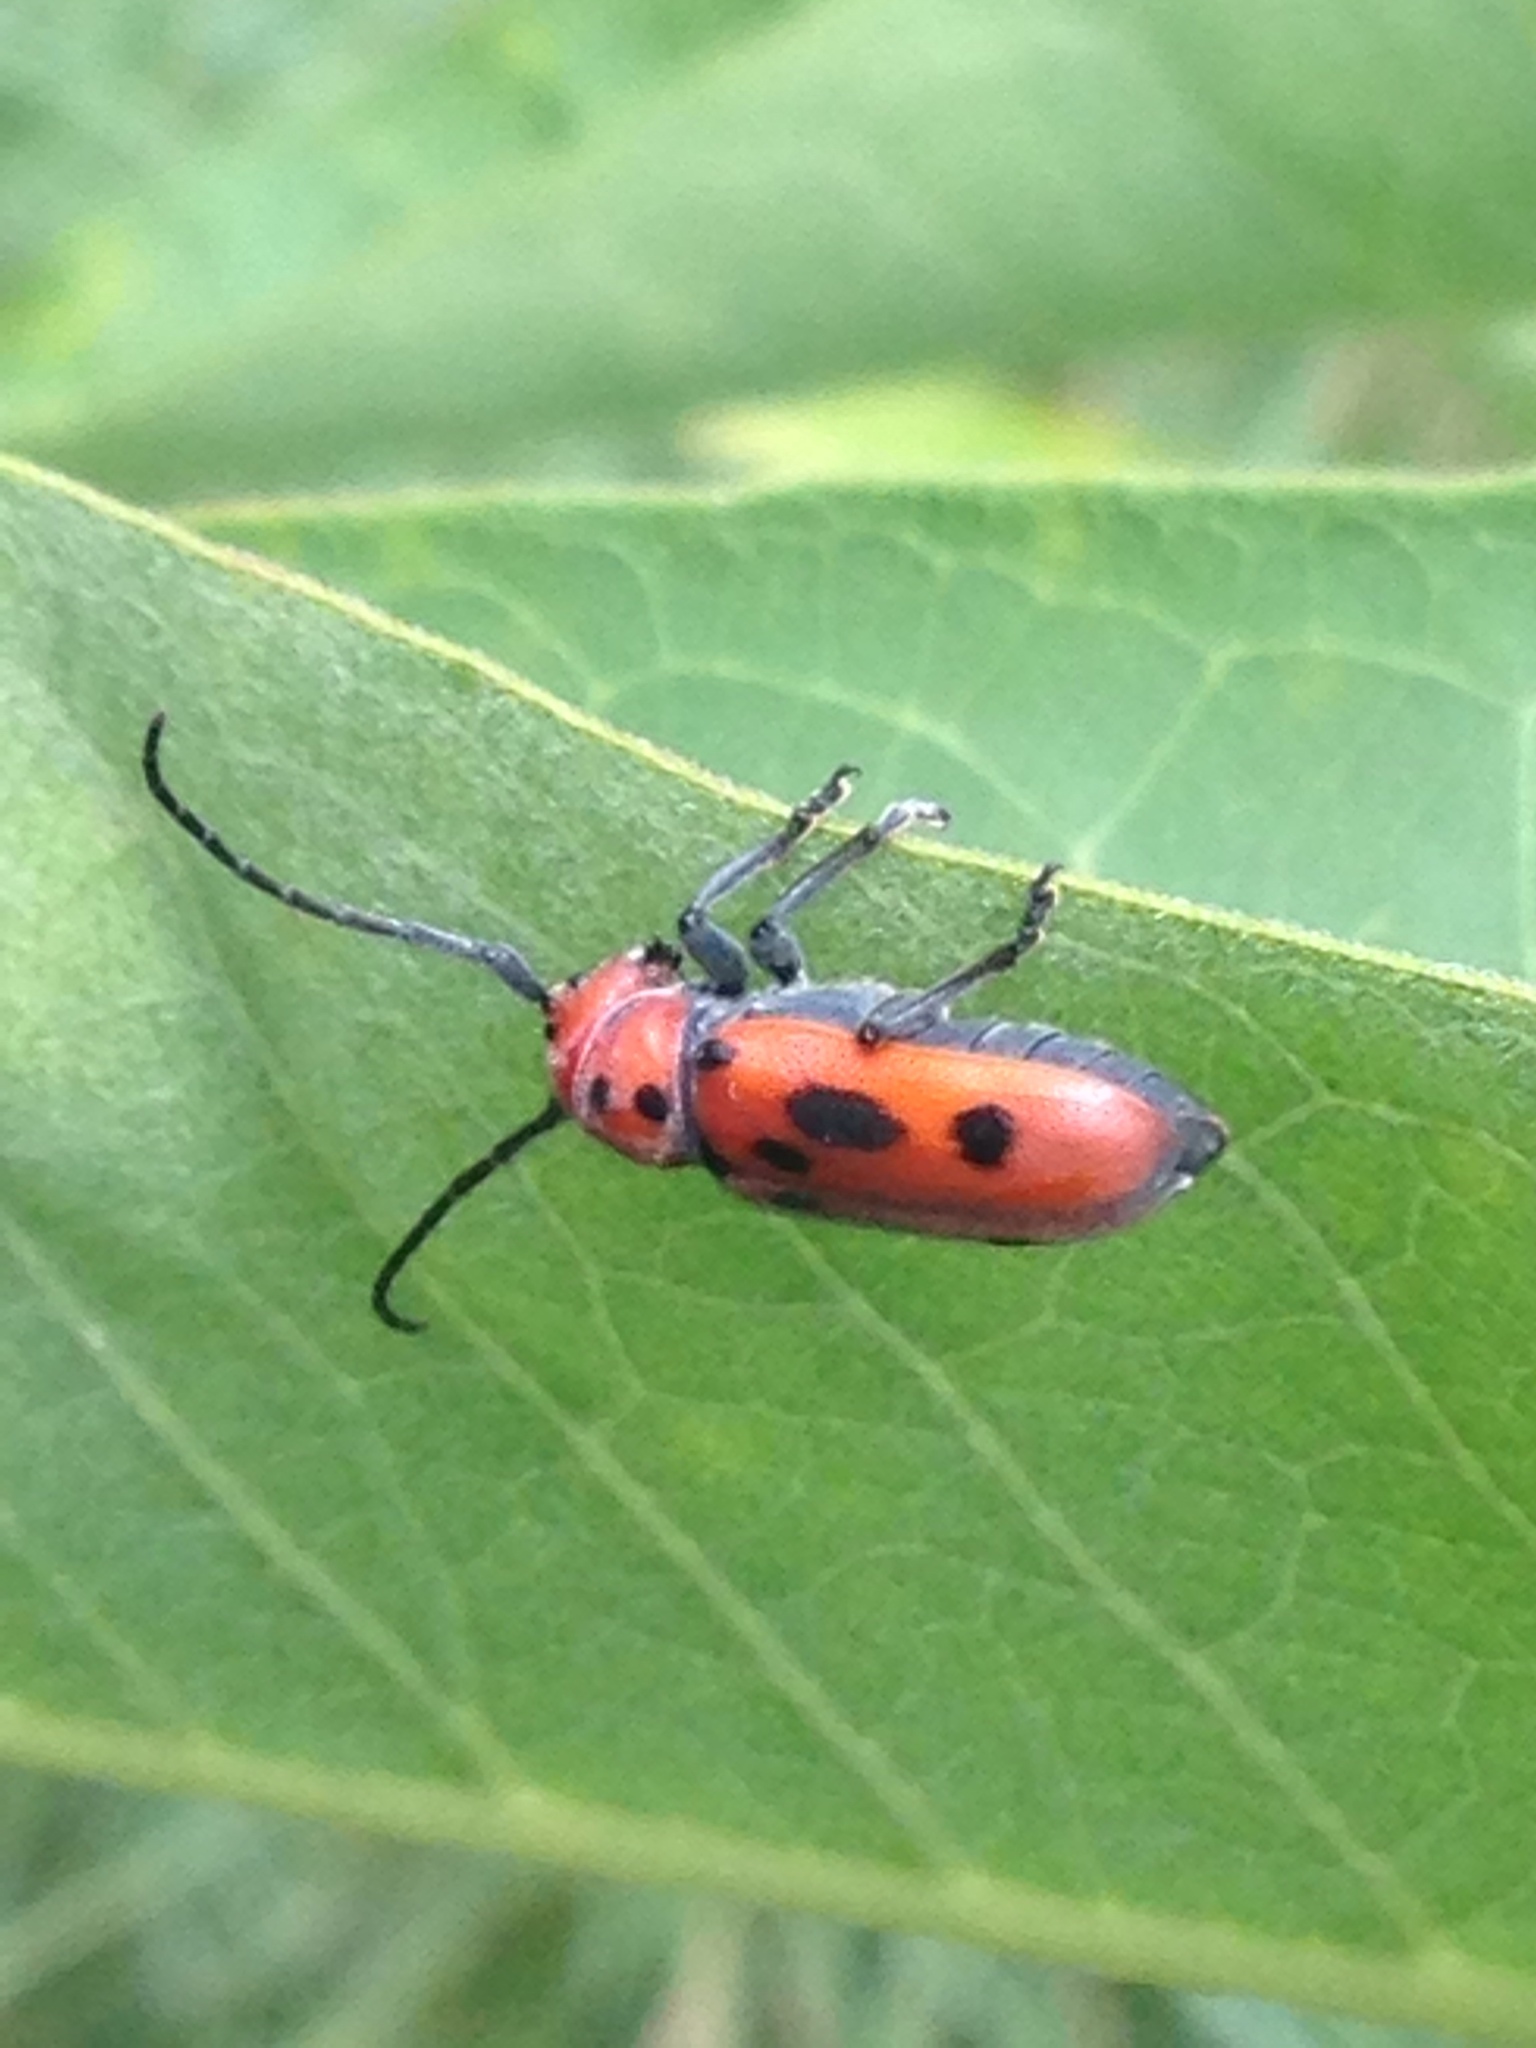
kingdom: Animalia
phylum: Arthropoda
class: Insecta
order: Coleoptera
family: Cerambycidae
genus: Tetraopes
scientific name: Tetraopes tetrophthalmus
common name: Red milkweed beetle
